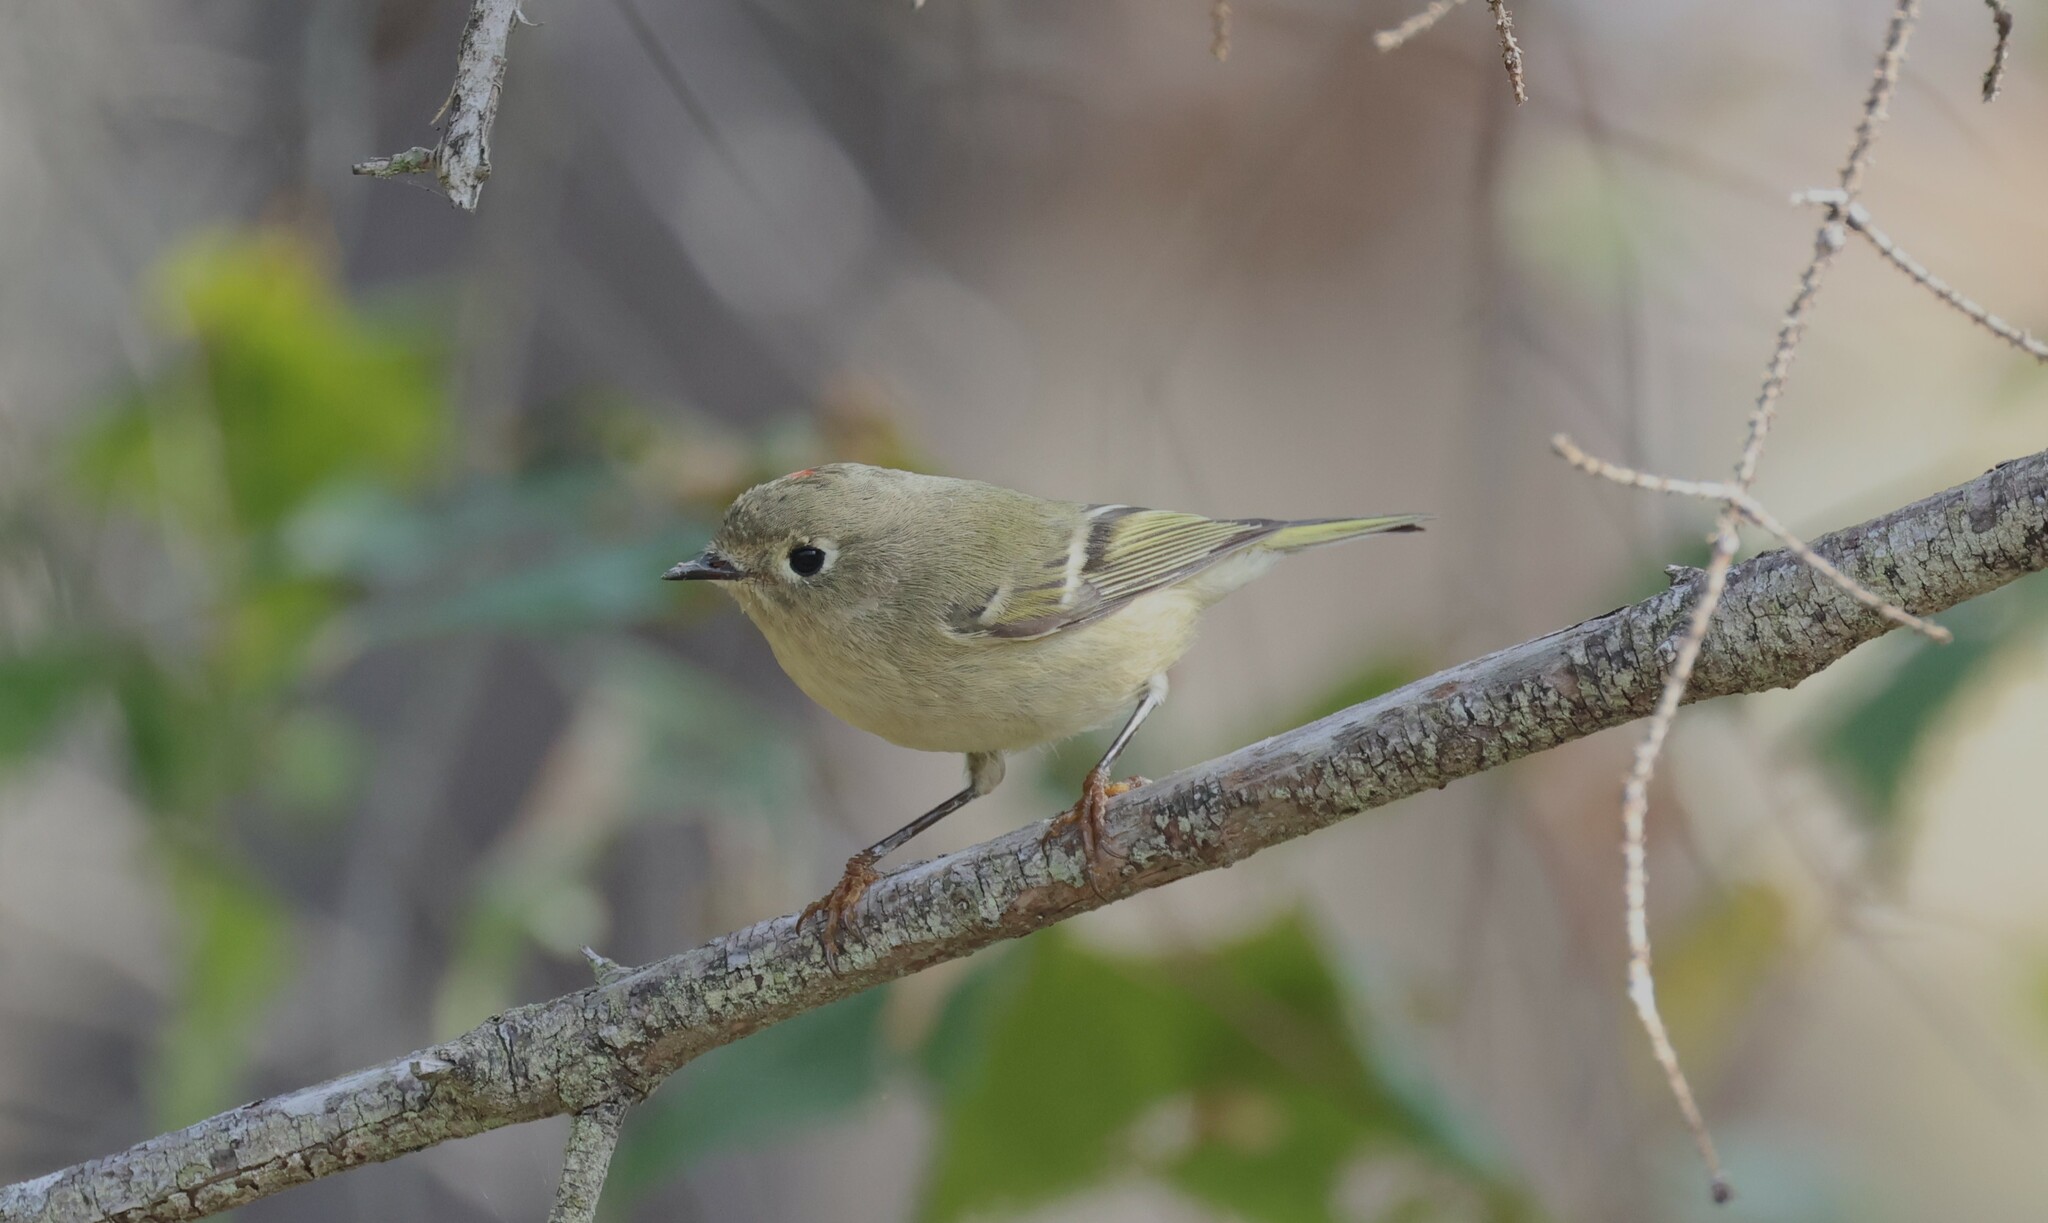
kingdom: Animalia
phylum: Chordata
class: Aves
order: Passeriformes
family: Regulidae
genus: Regulus
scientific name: Regulus calendula
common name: Ruby-crowned kinglet
